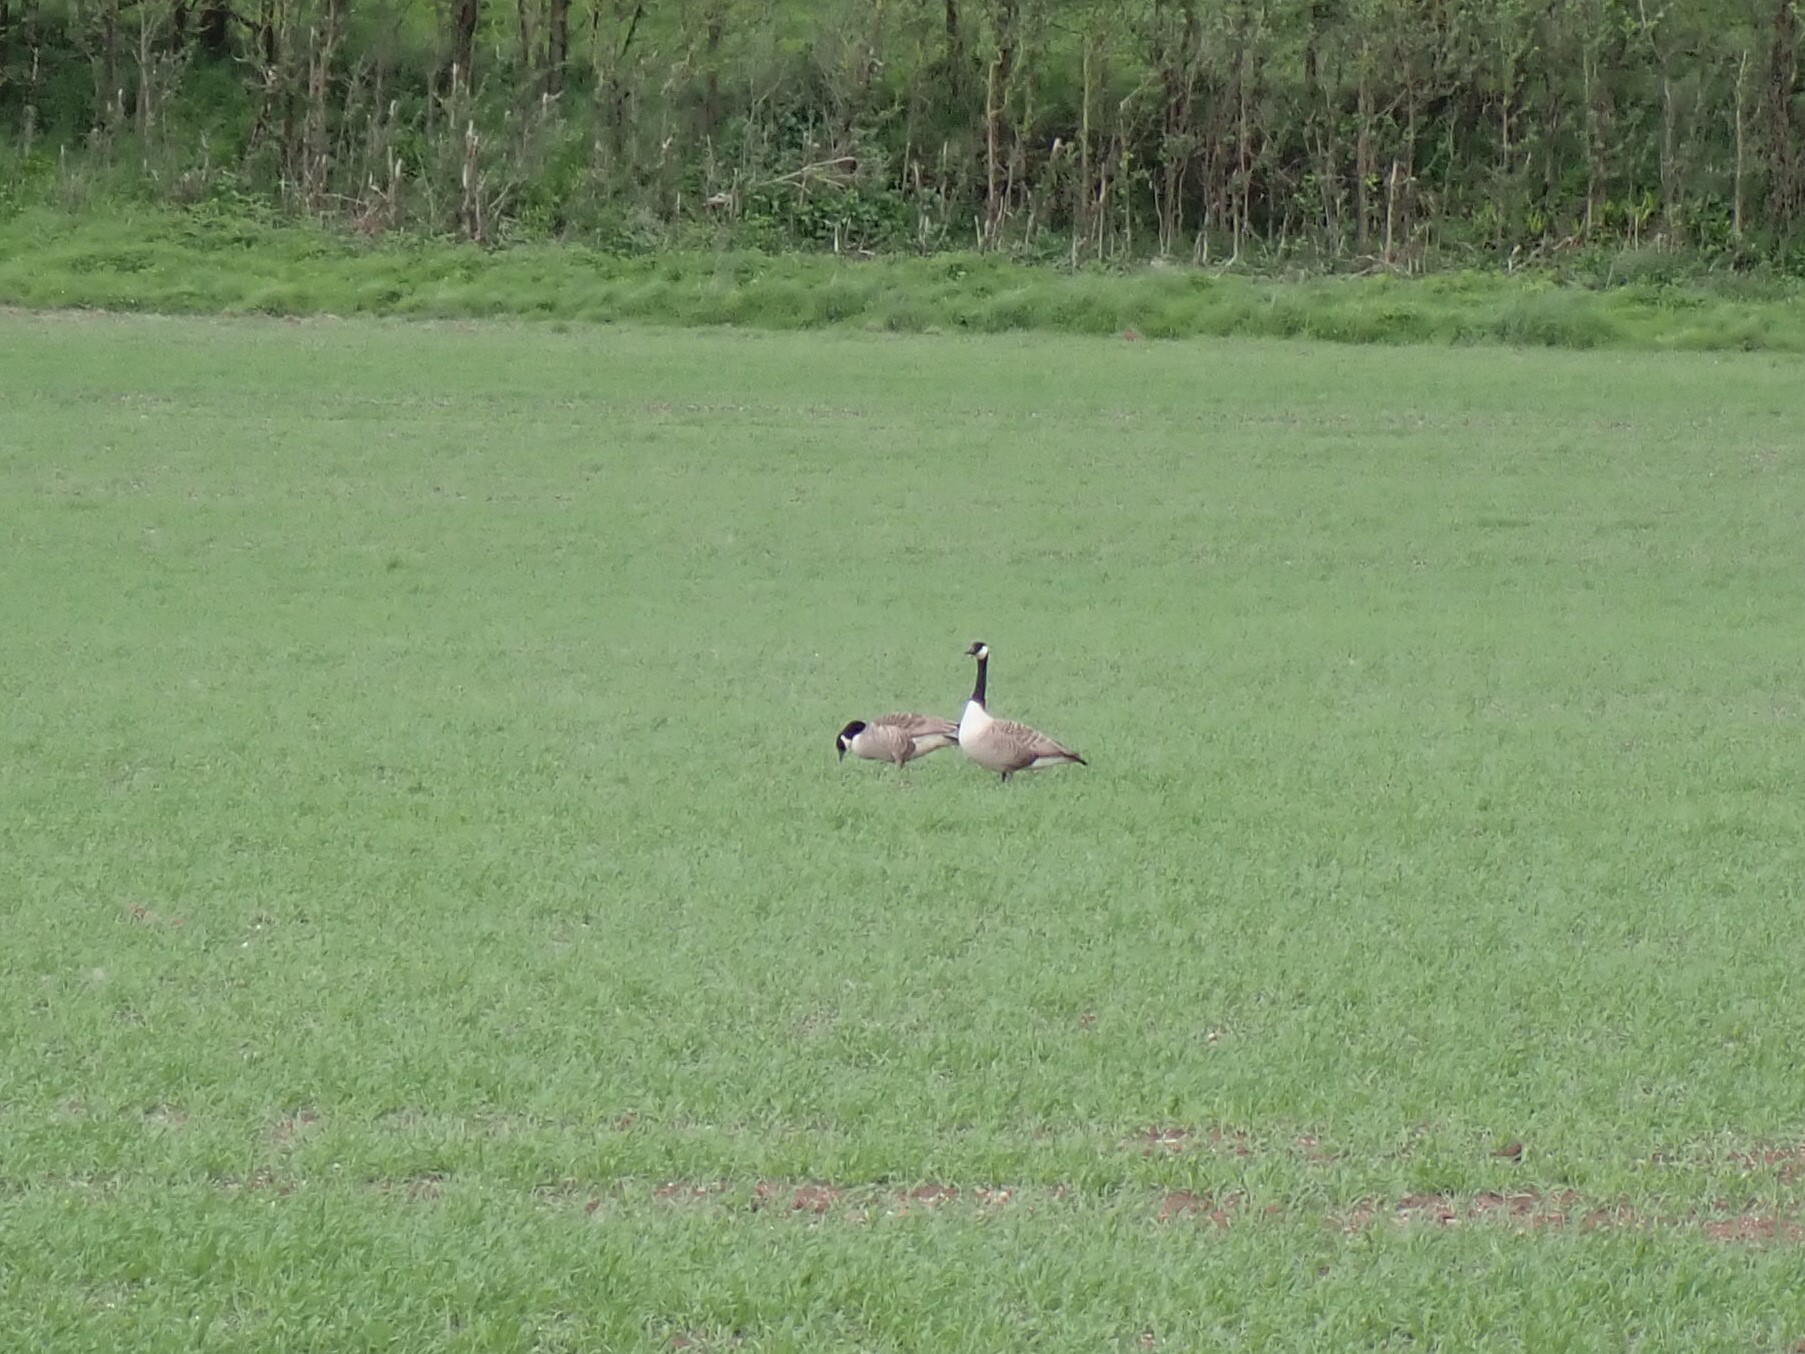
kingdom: Animalia
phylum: Chordata
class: Aves
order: Anseriformes
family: Anatidae
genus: Branta
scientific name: Branta canadensis
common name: Canada goose
